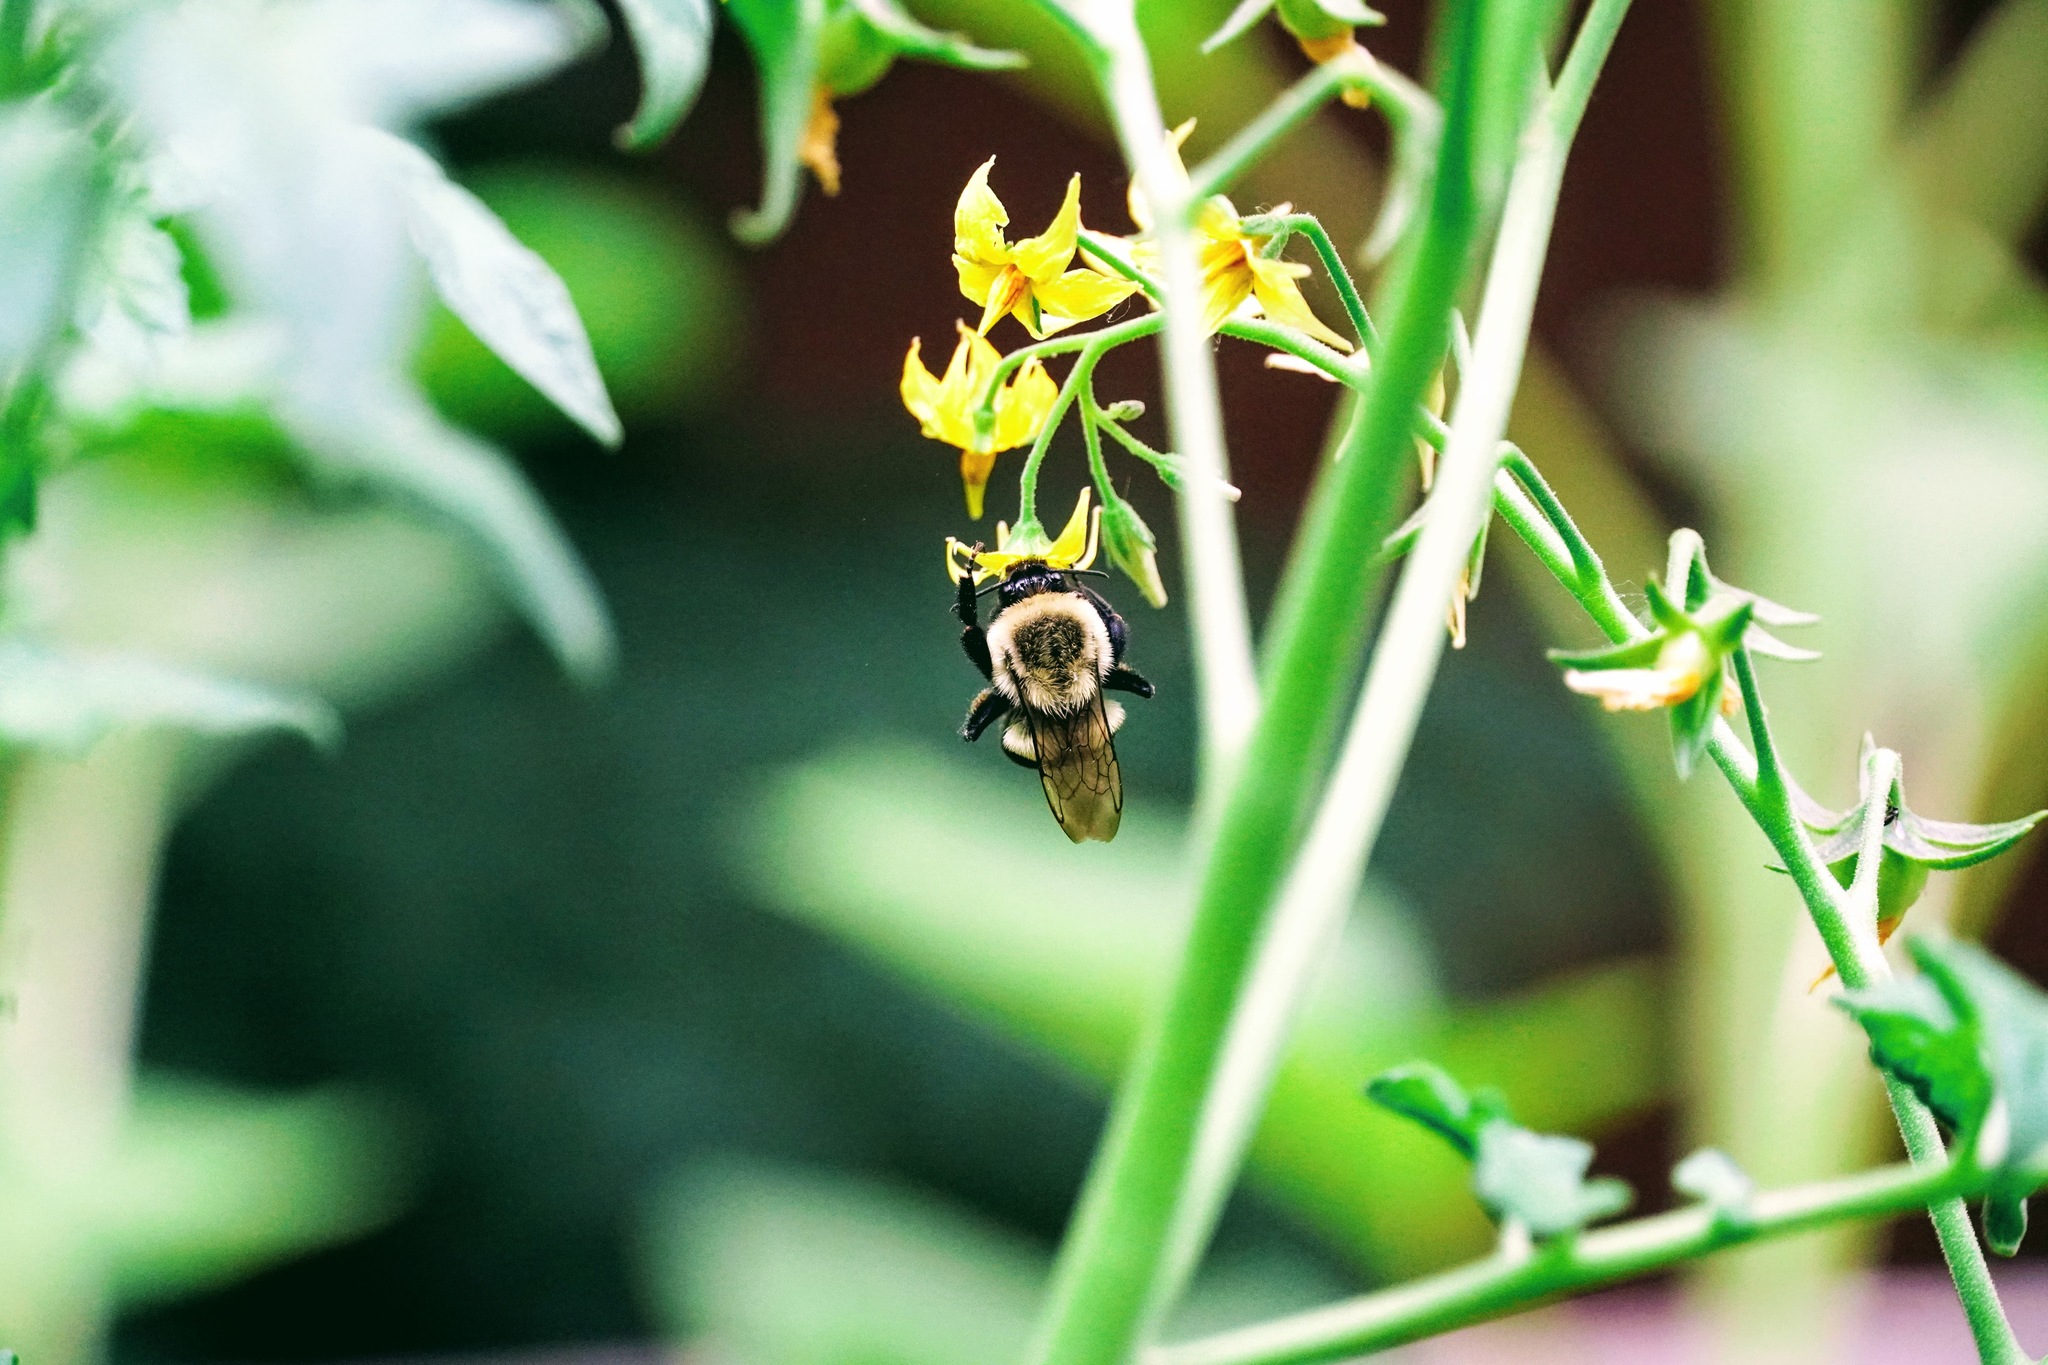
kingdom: Animalia
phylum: Arthropoda
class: Insecta
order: Hymenoptera
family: Apidae
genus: Bombus
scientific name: Bombus impatiens
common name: Common eastern bumble bee
